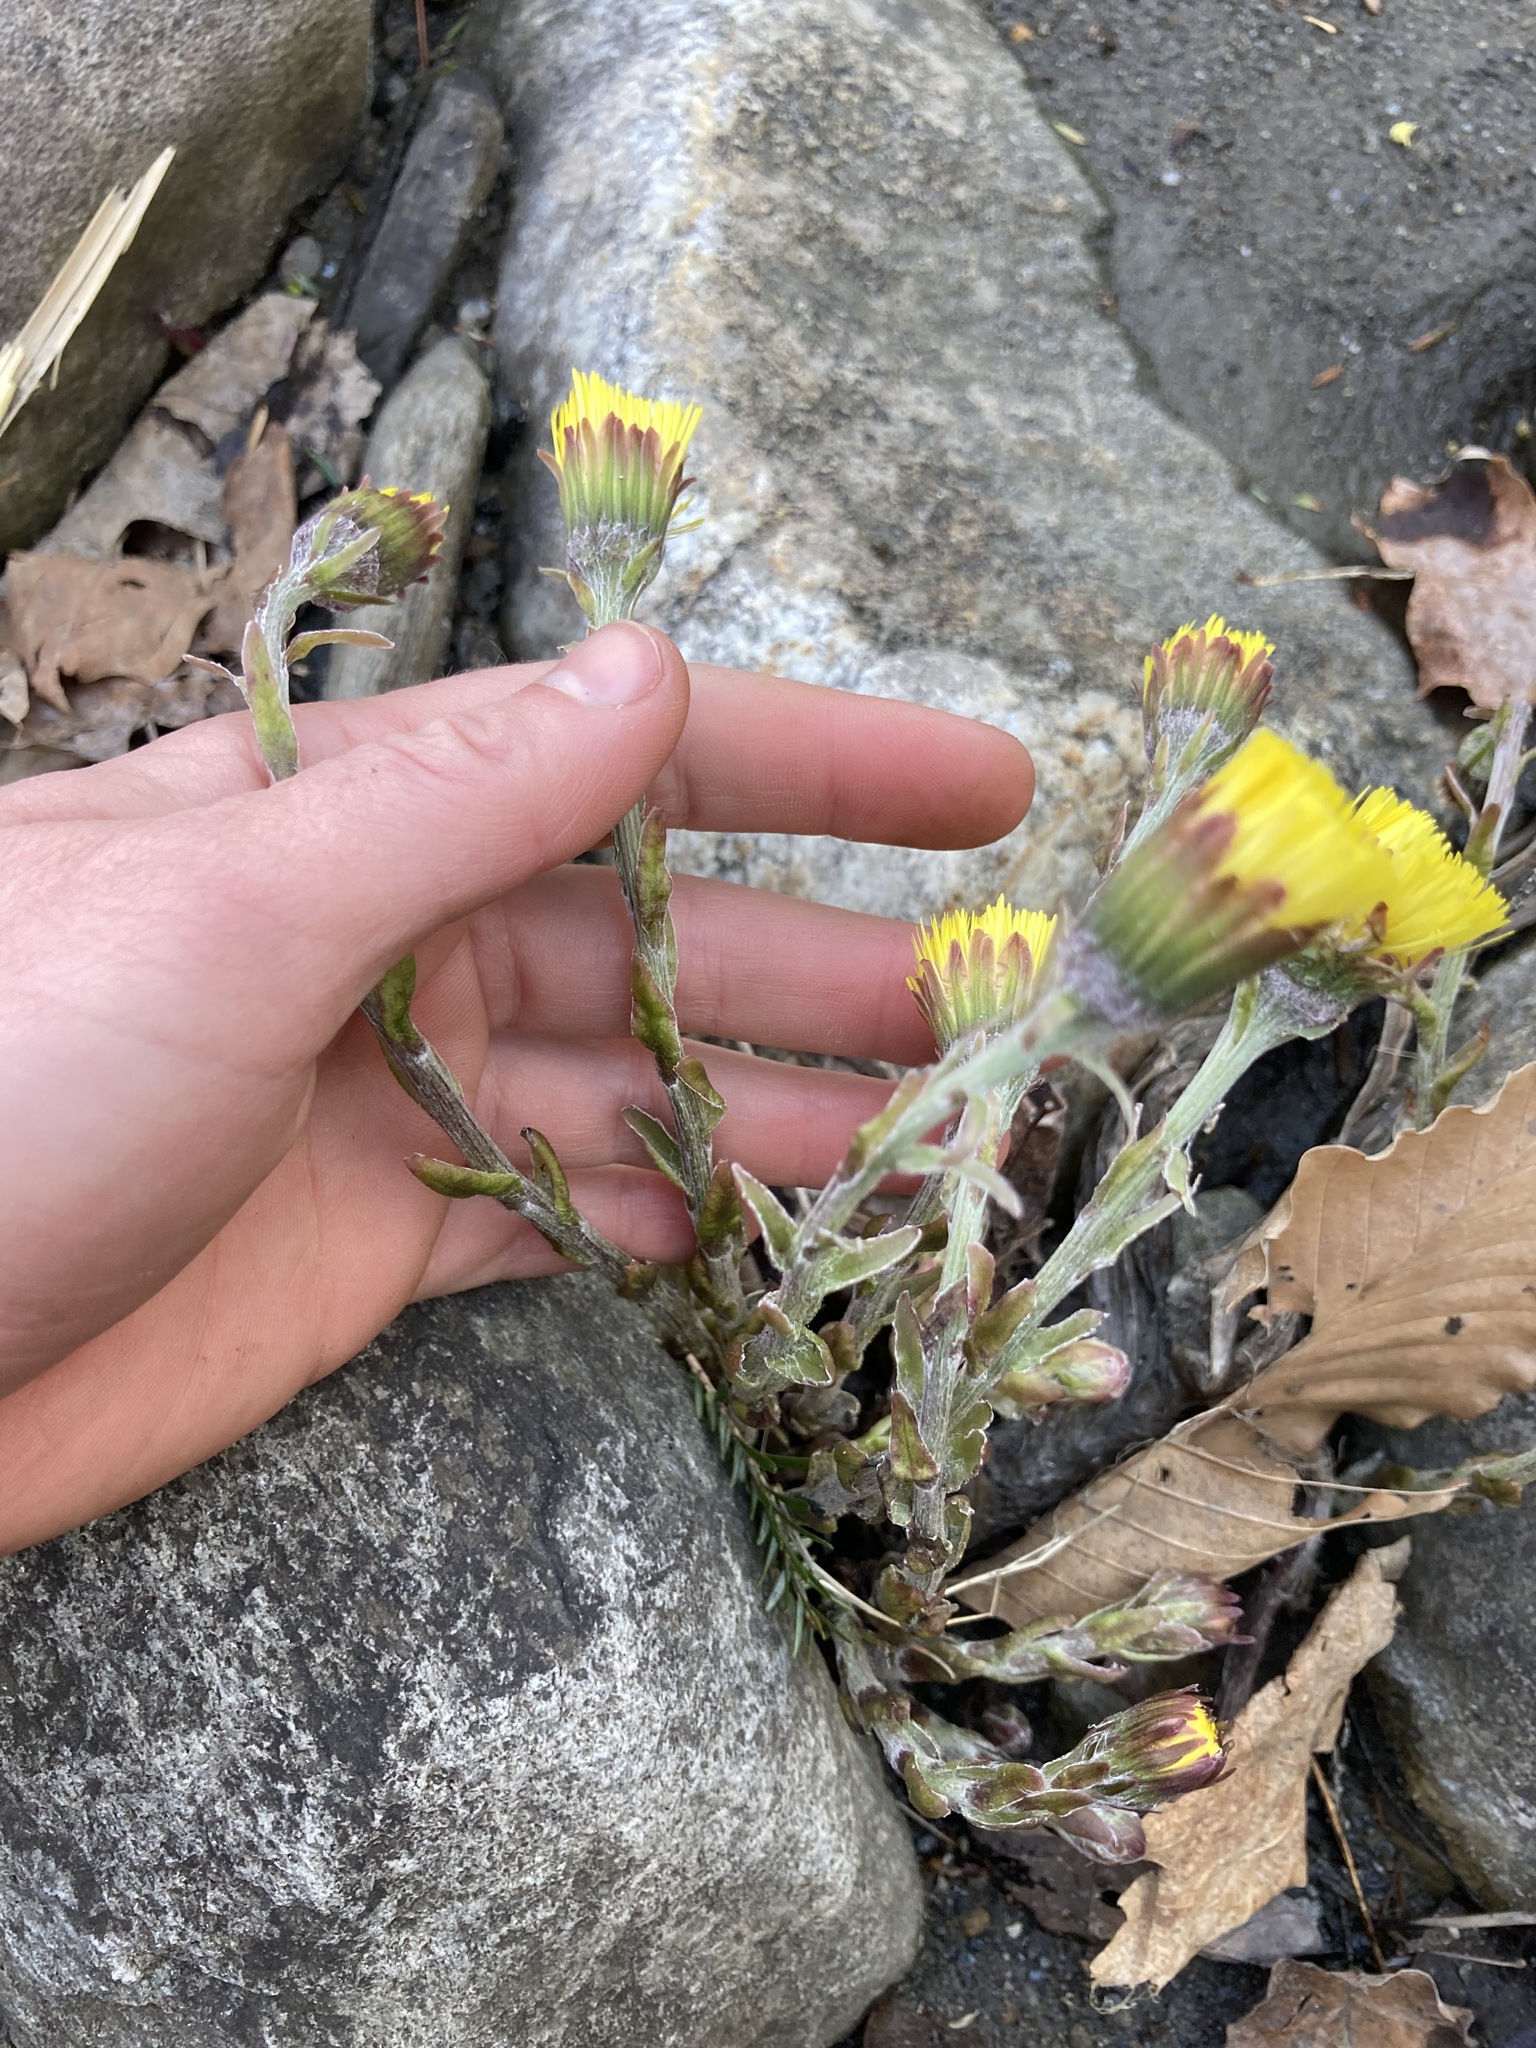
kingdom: Plantae
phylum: Tracheophyta
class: Magnoliopsida
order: Asterales
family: Asteraceae
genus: Tussilago
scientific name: Tussilago farfara
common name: Coltsfoot
